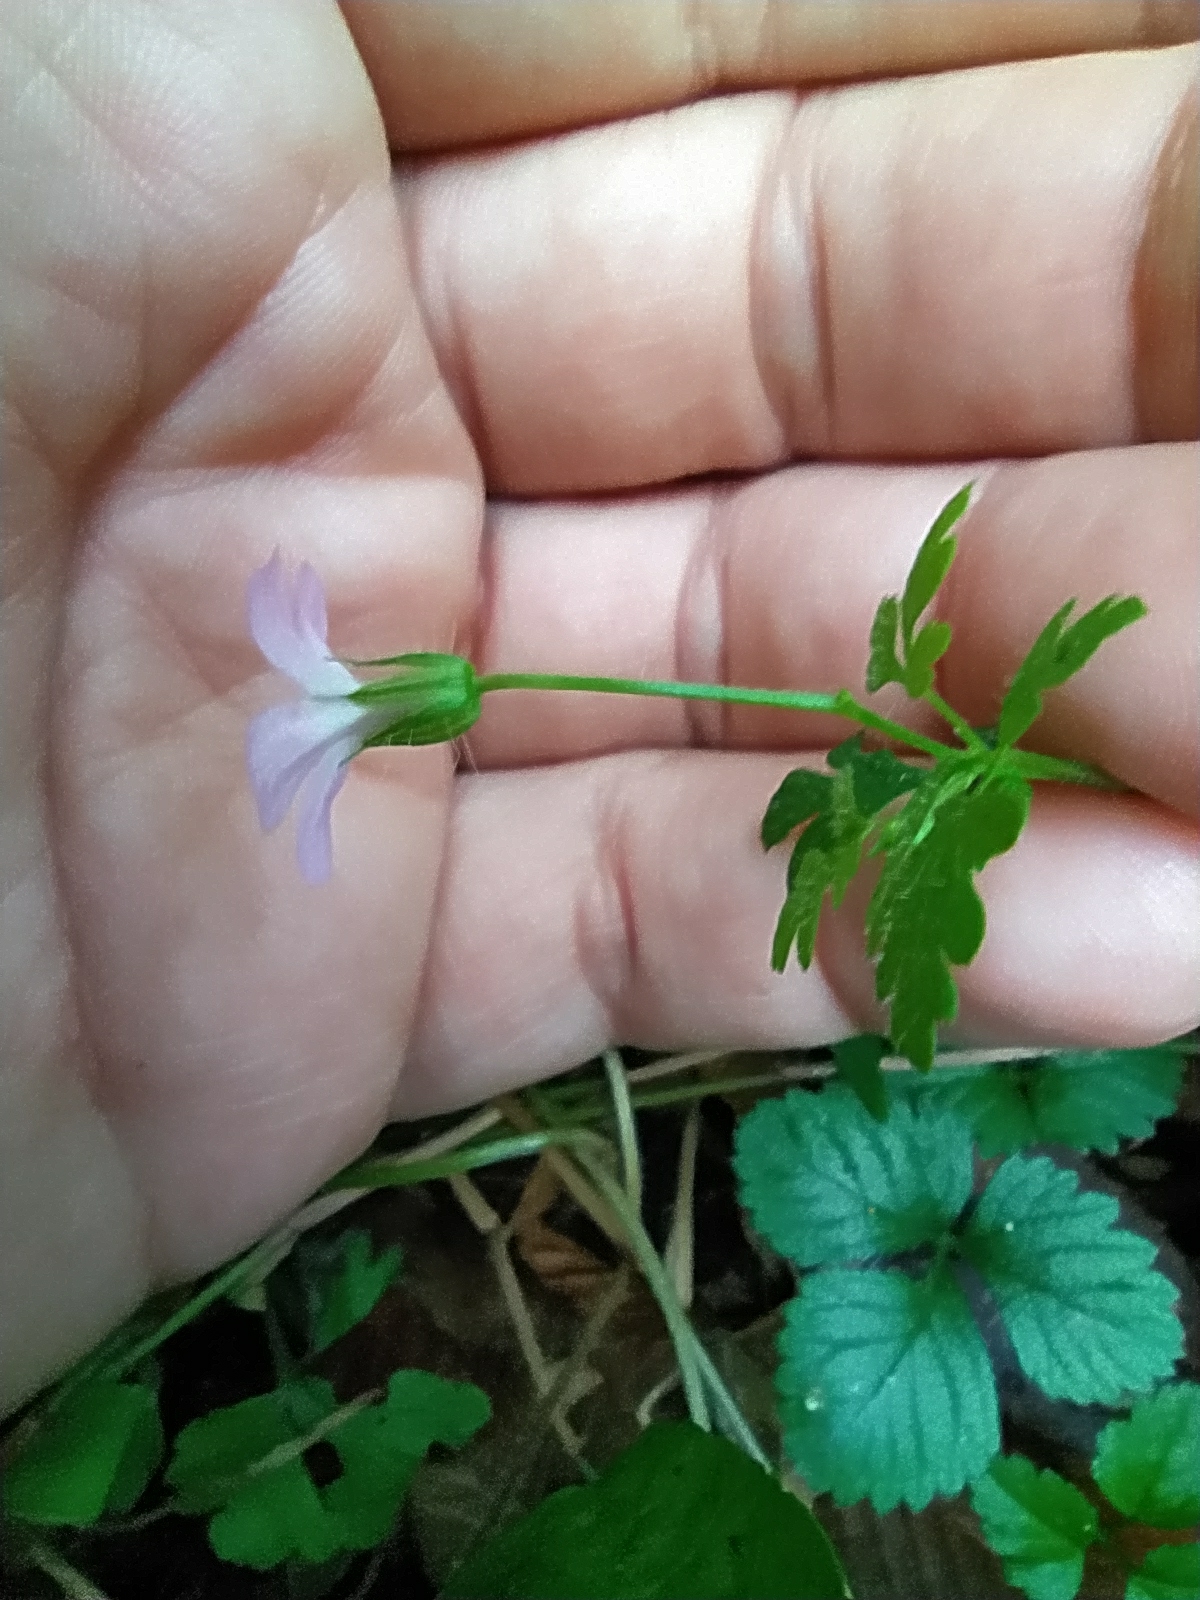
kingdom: Plantae
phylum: Tracheophyta
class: Magnoliopsida
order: Geraniales
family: Geraniaceae
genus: Geranium
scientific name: Geranium robertianum
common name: Herb-robert
